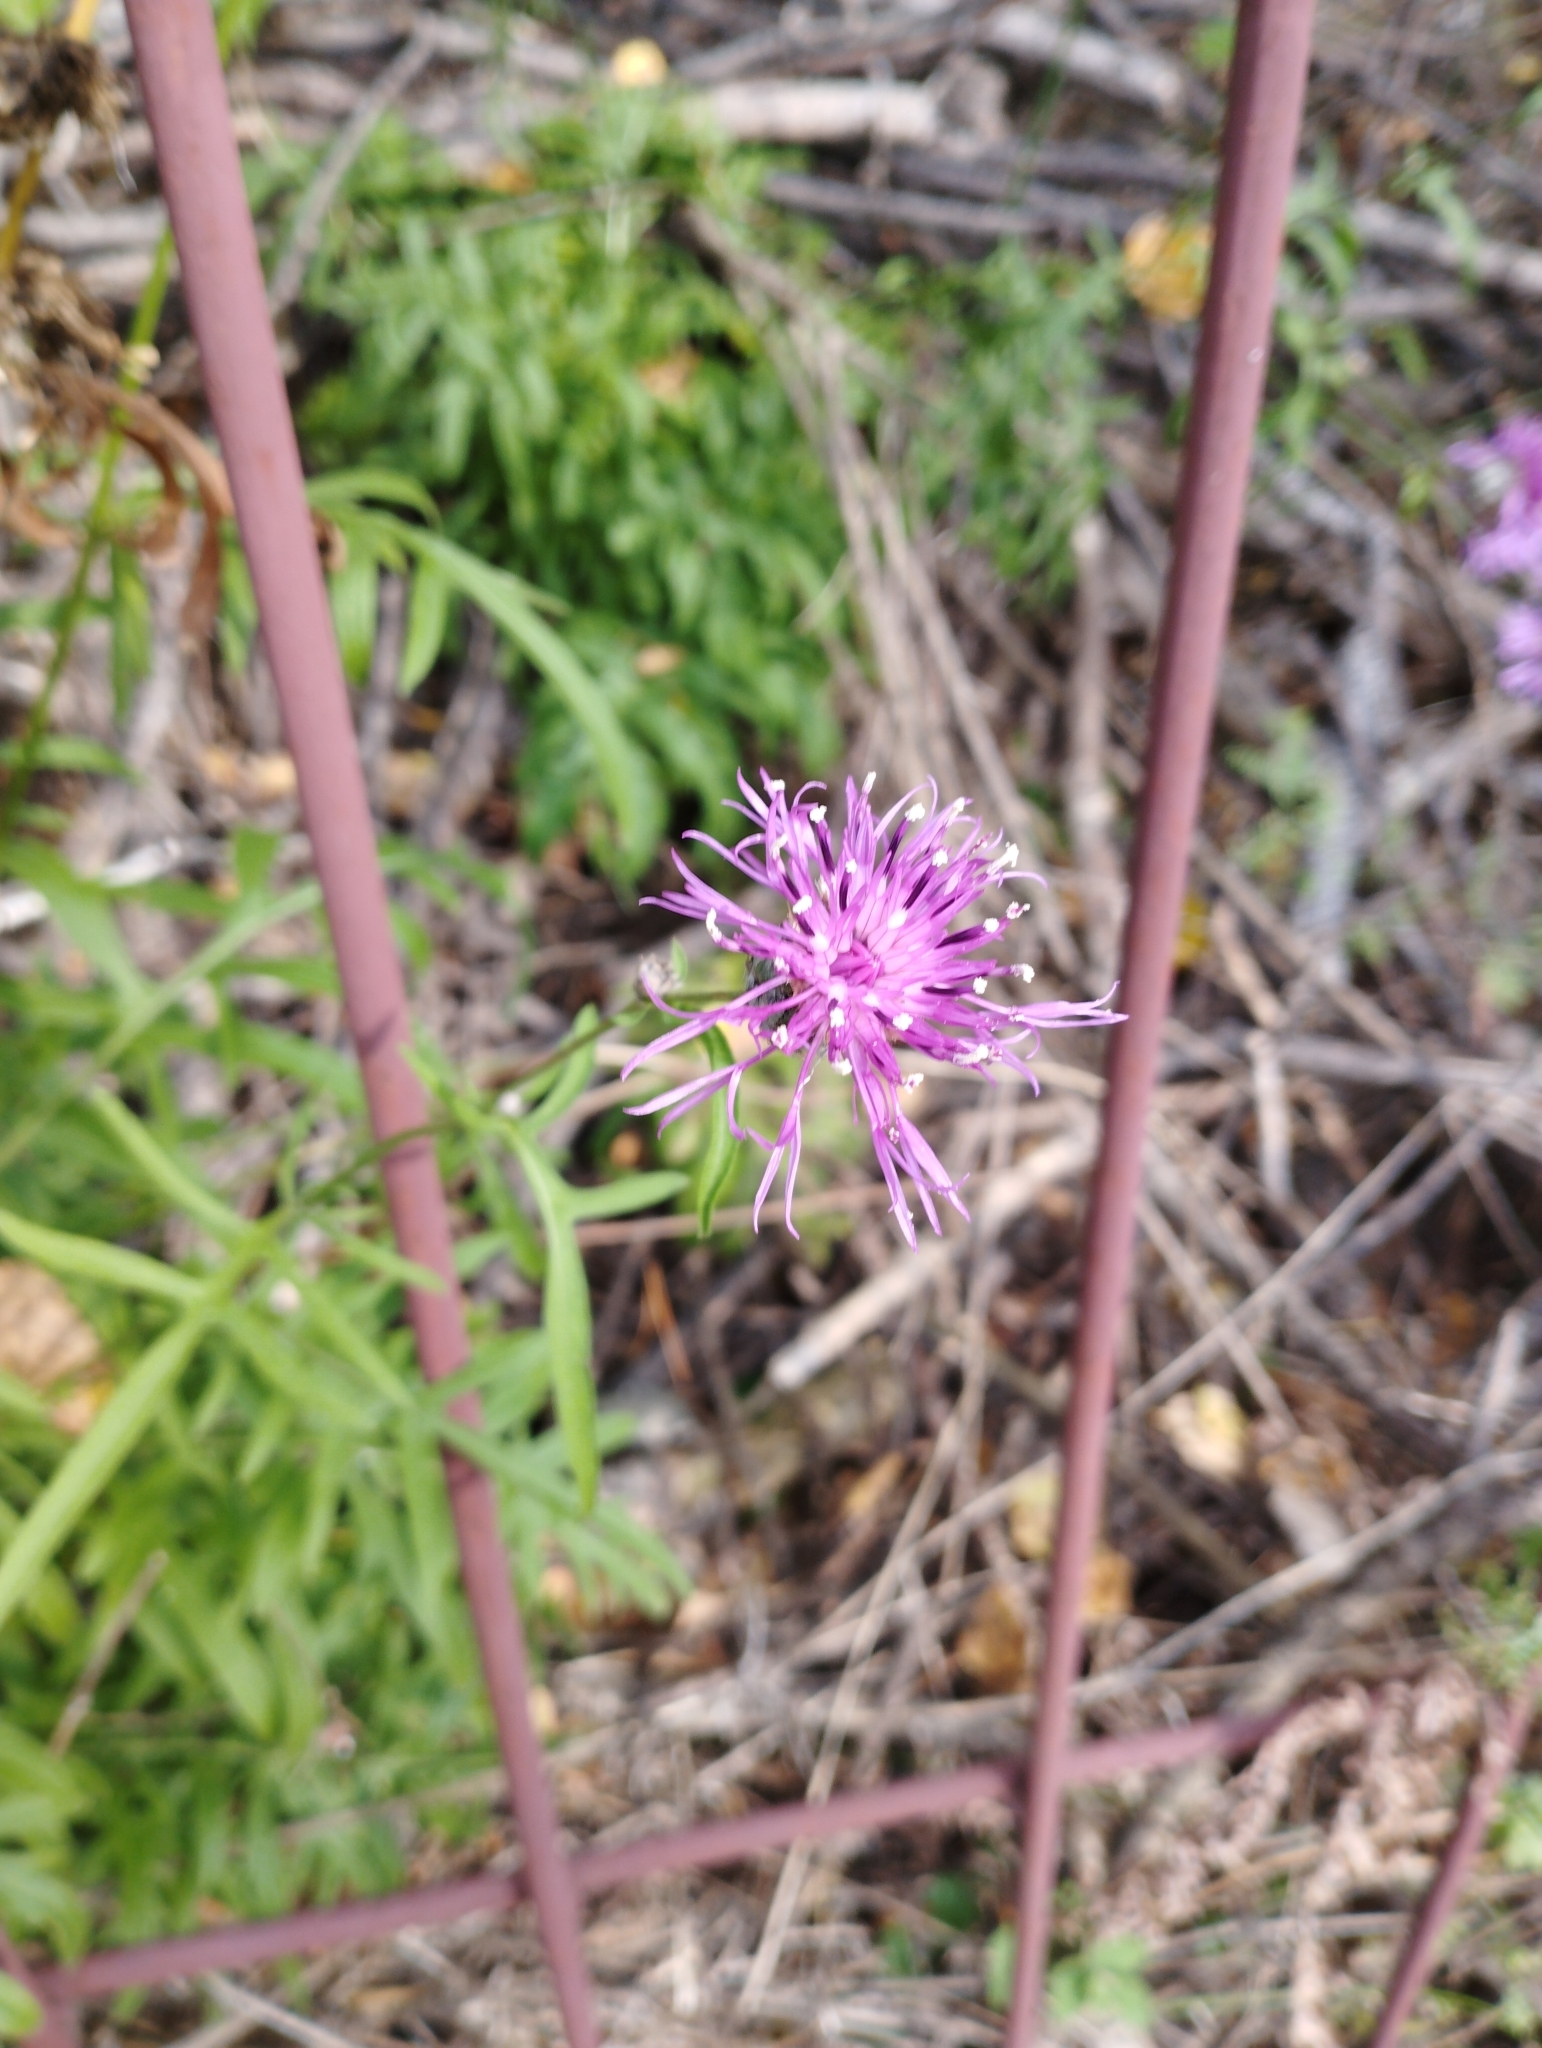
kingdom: Plantae
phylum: Tracheophyta
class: Magnoliopsida
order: Asterales
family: Asteraceae
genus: Centaurea
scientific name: Centaurea scabiosa
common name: Greater knapweed
